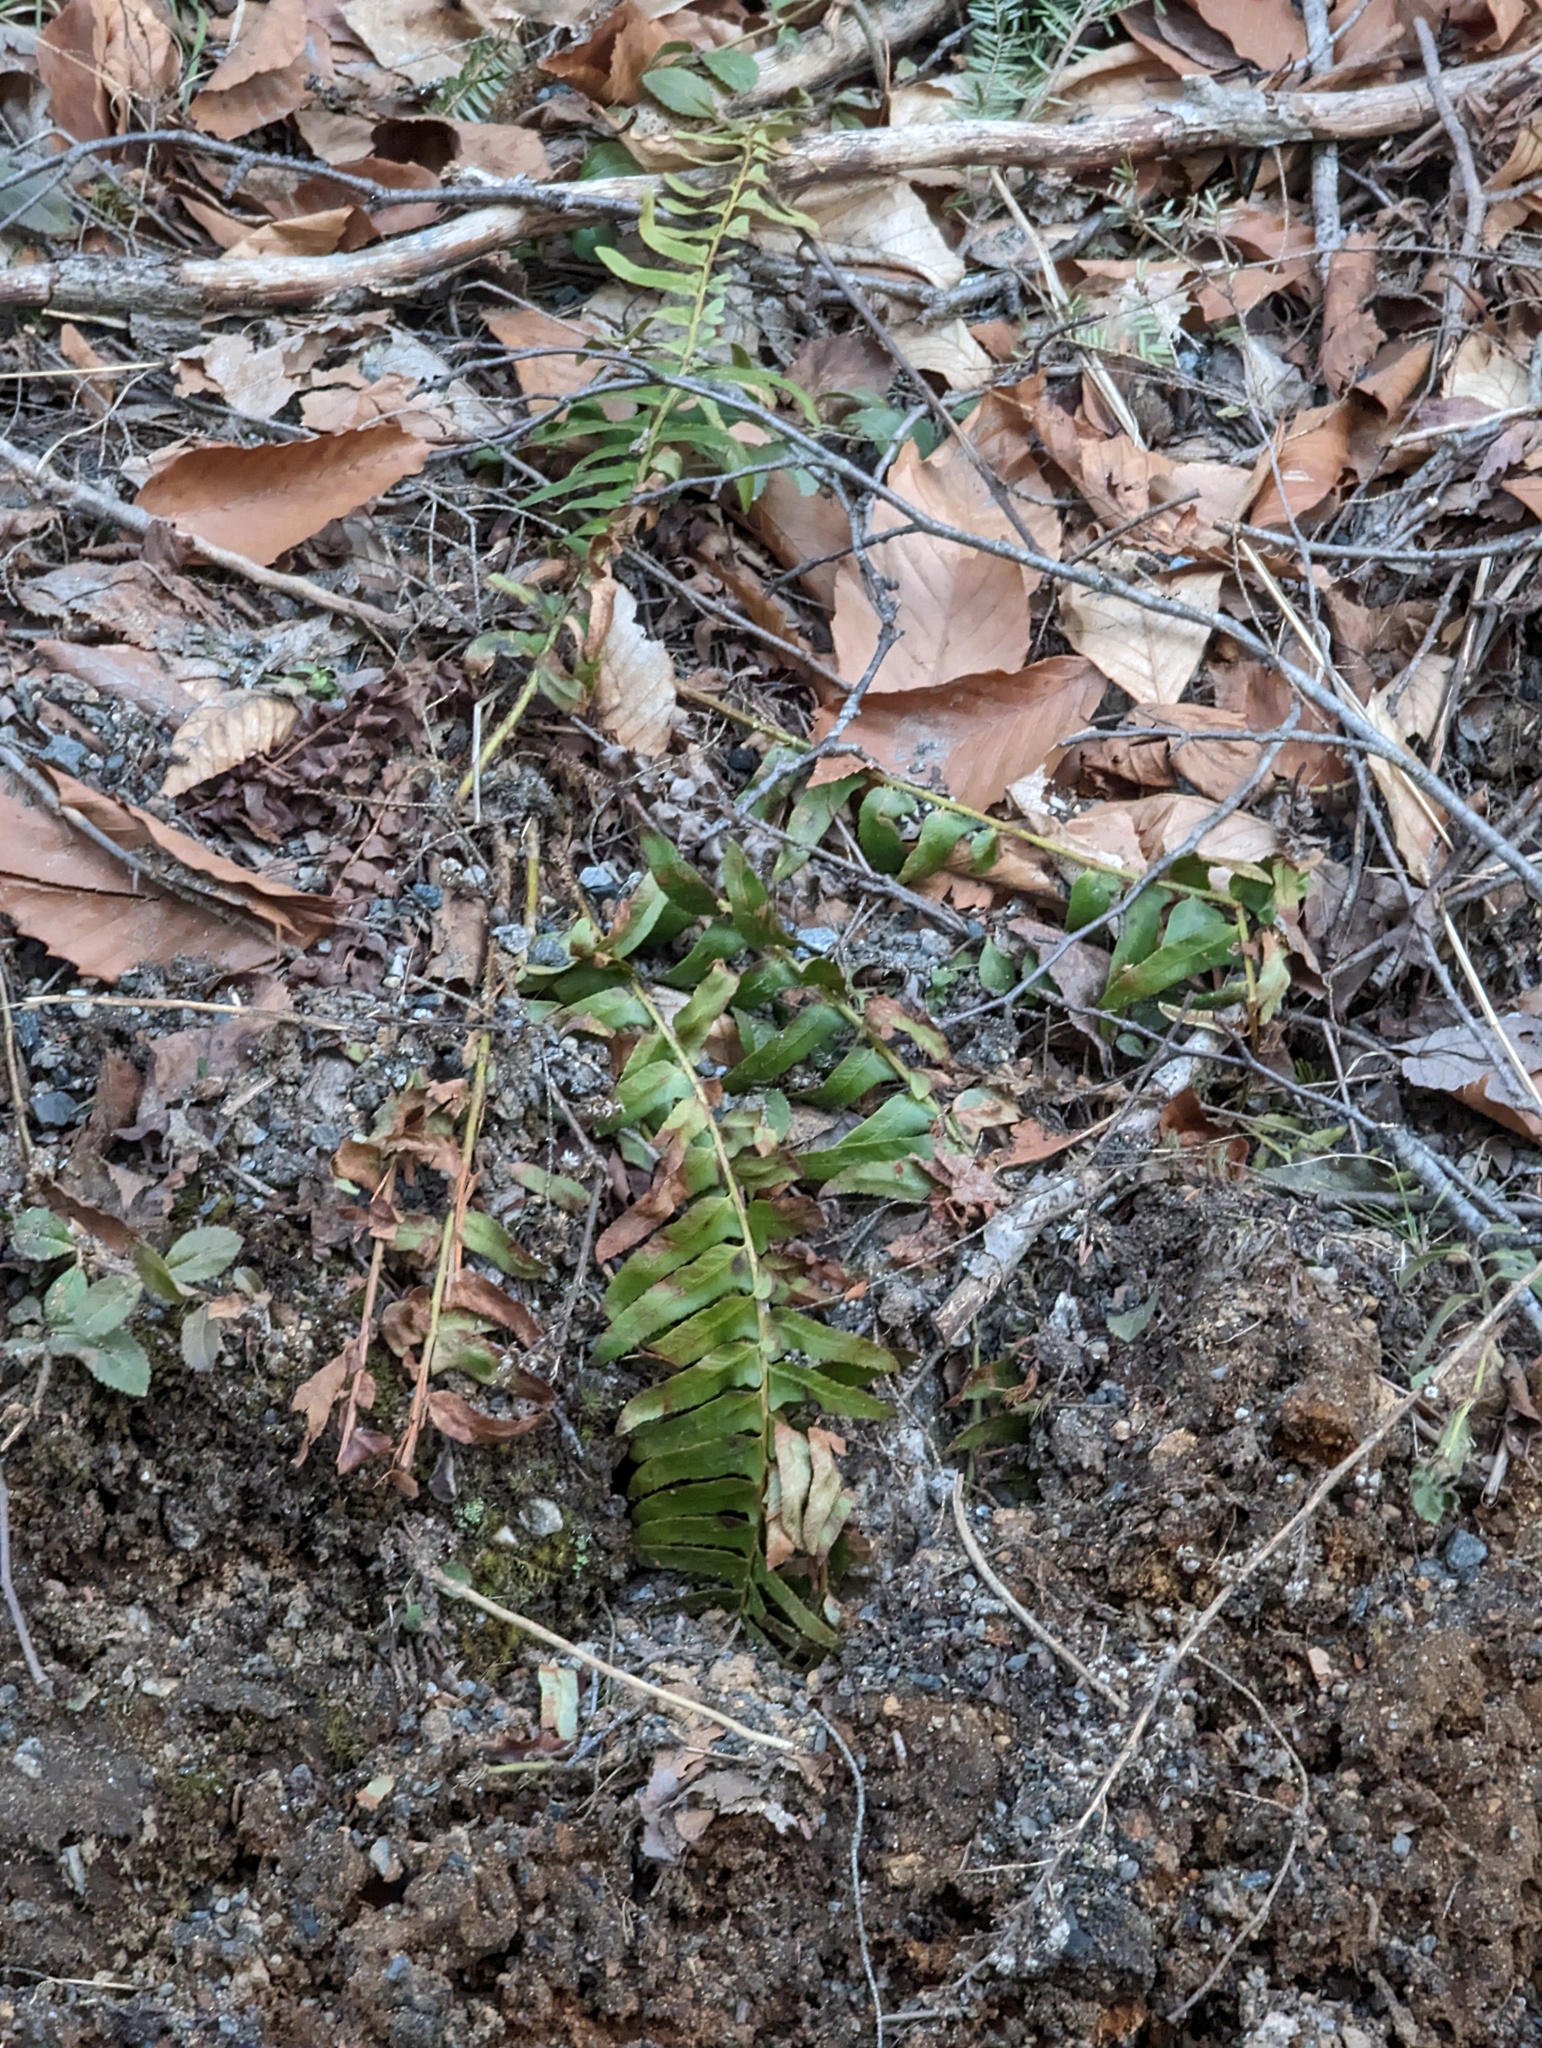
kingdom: Plantae
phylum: Tracheophyta
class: Polypodiopsida
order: Polypodiales
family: Dryopteridaceae
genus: Polystichum
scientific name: Polystichum acrostichoides
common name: Christmas fern
